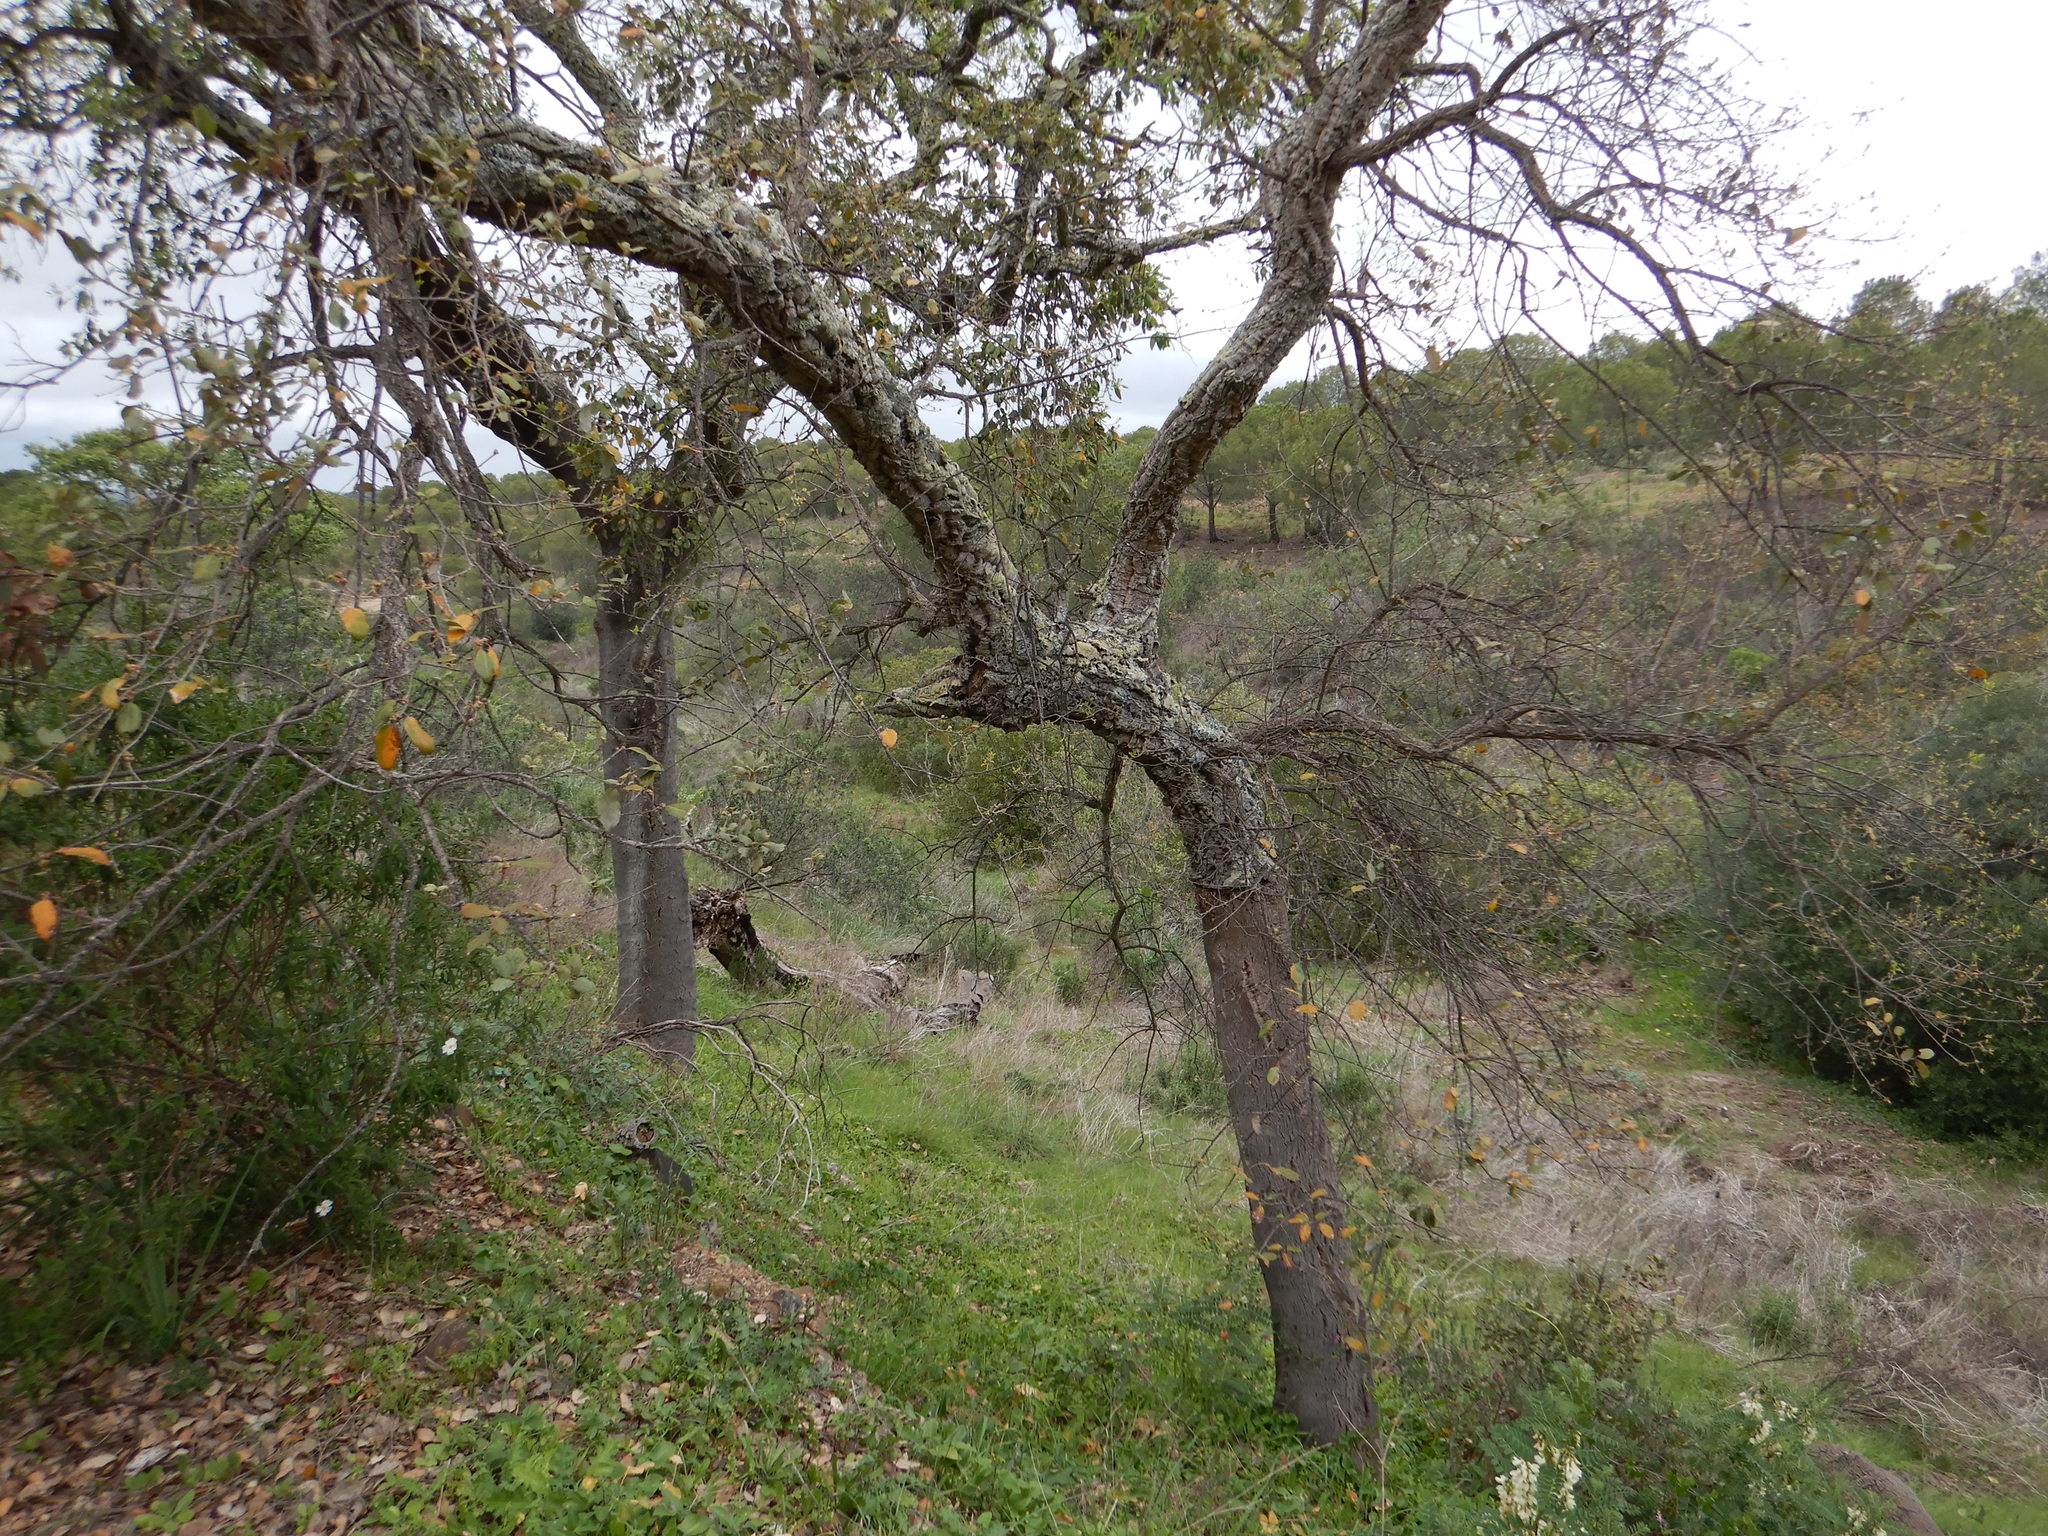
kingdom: Plantae
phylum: Tracheophyta
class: Magnoliopsida
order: Fagales
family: Fagaceae
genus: Quercus
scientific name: Quercus suber
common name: Cork oak
